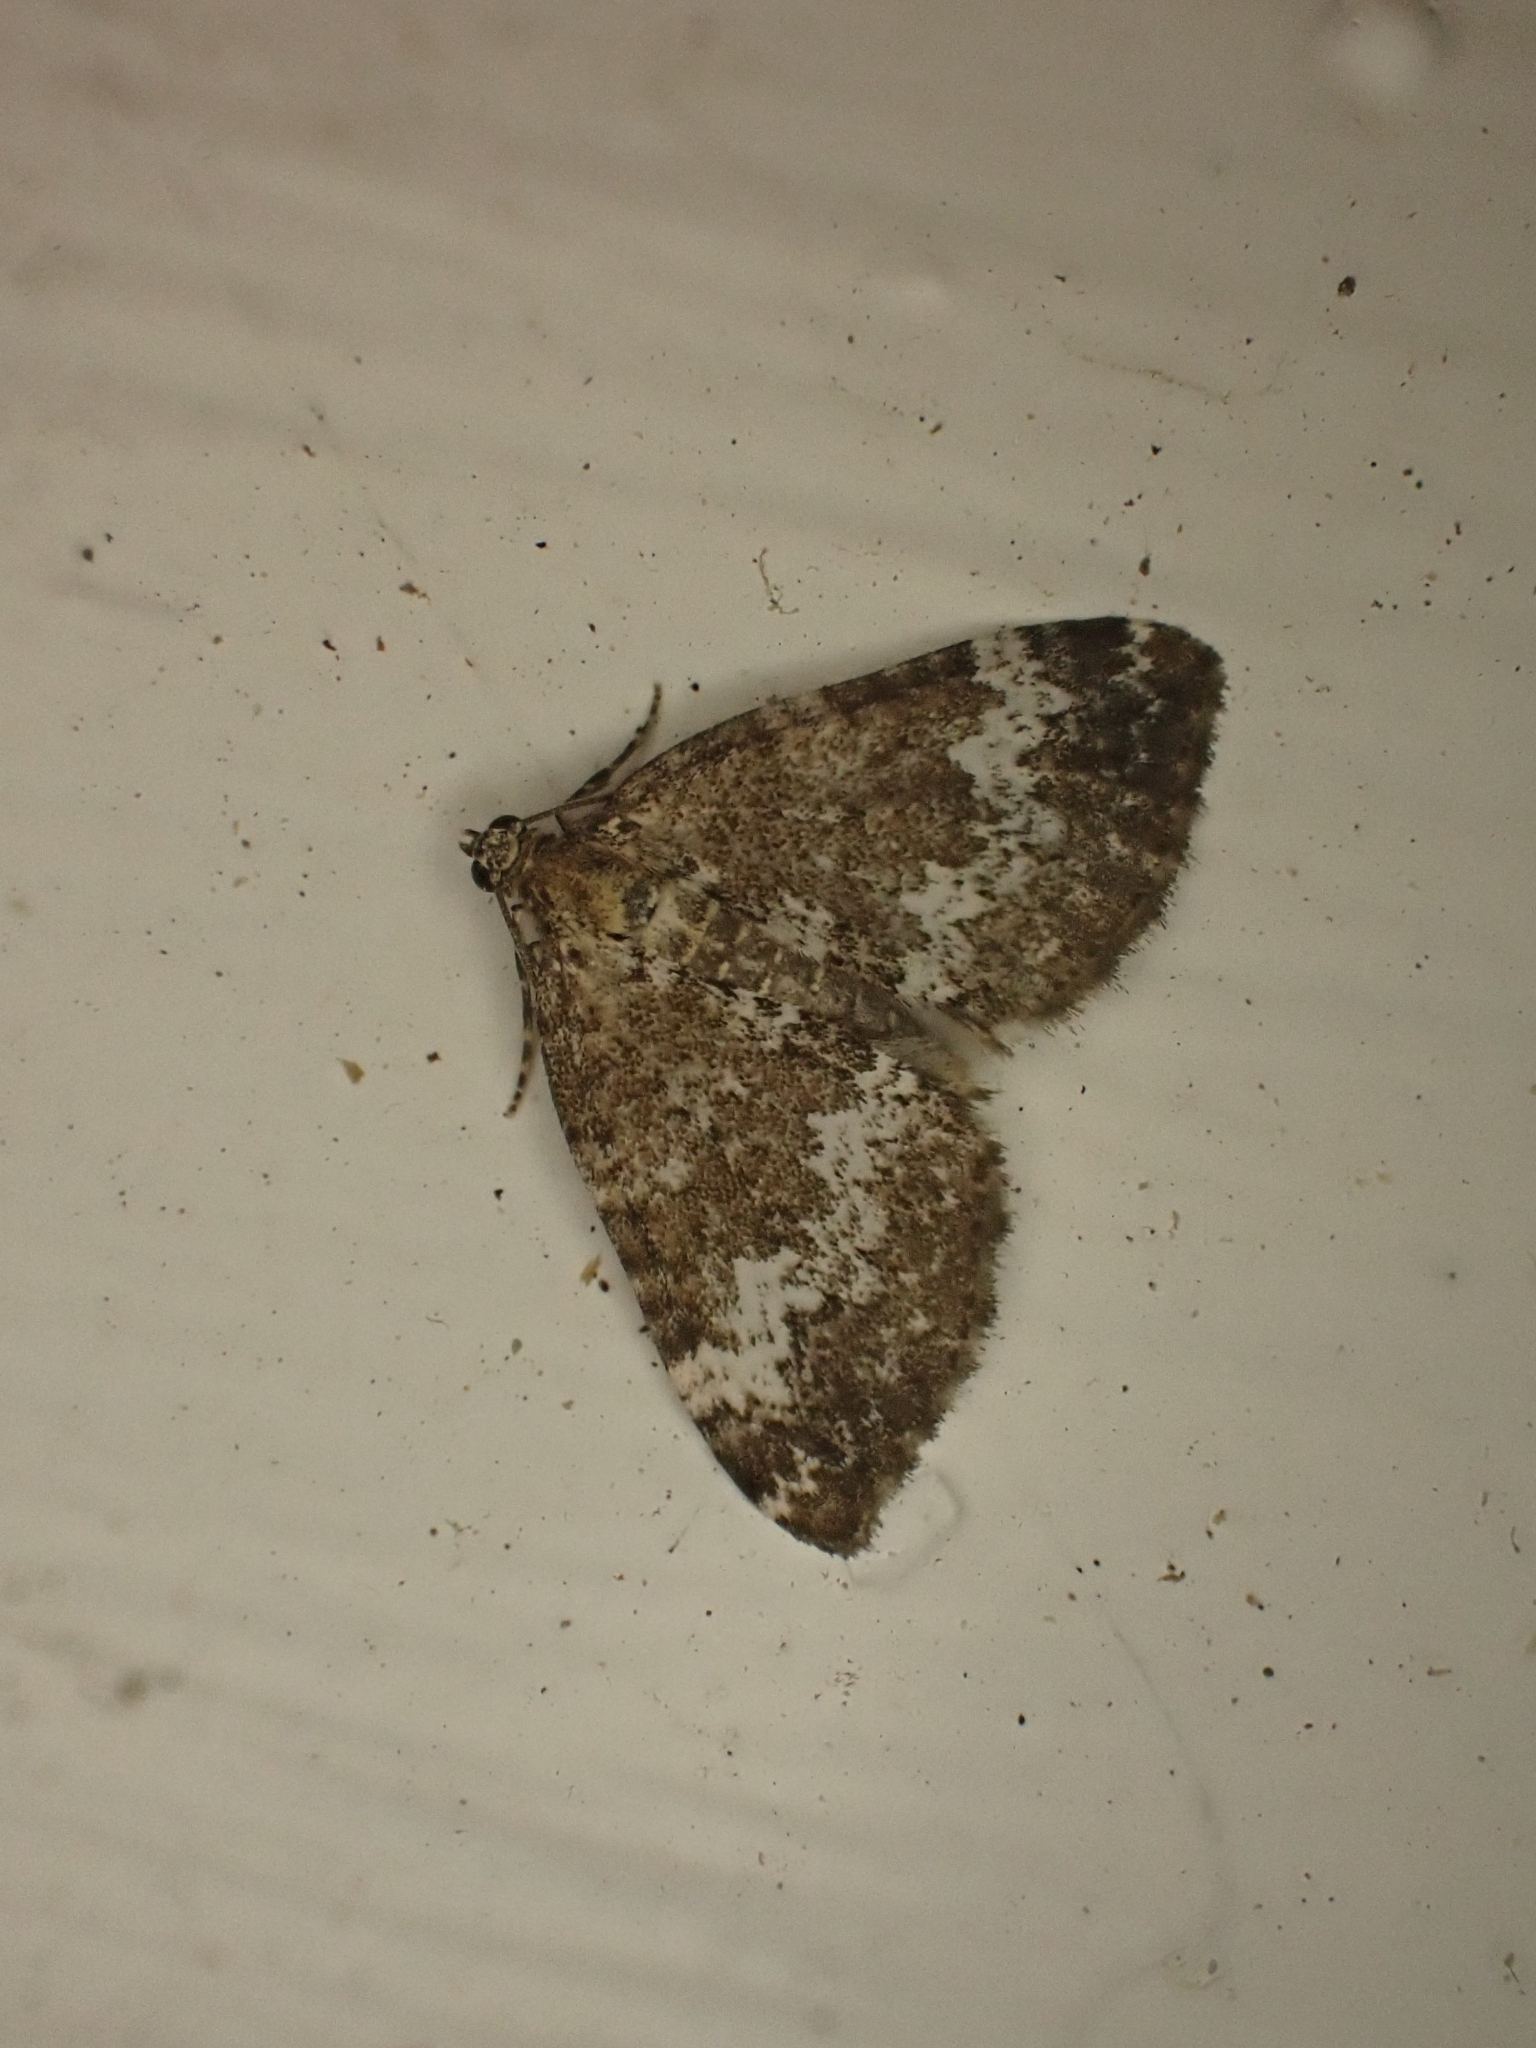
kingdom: Animalia
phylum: Arthropoda
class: Insecta
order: Lepidoptera
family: Geometridae
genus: Perizoma
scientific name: Perizoma alchemillata
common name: Small rivulet
